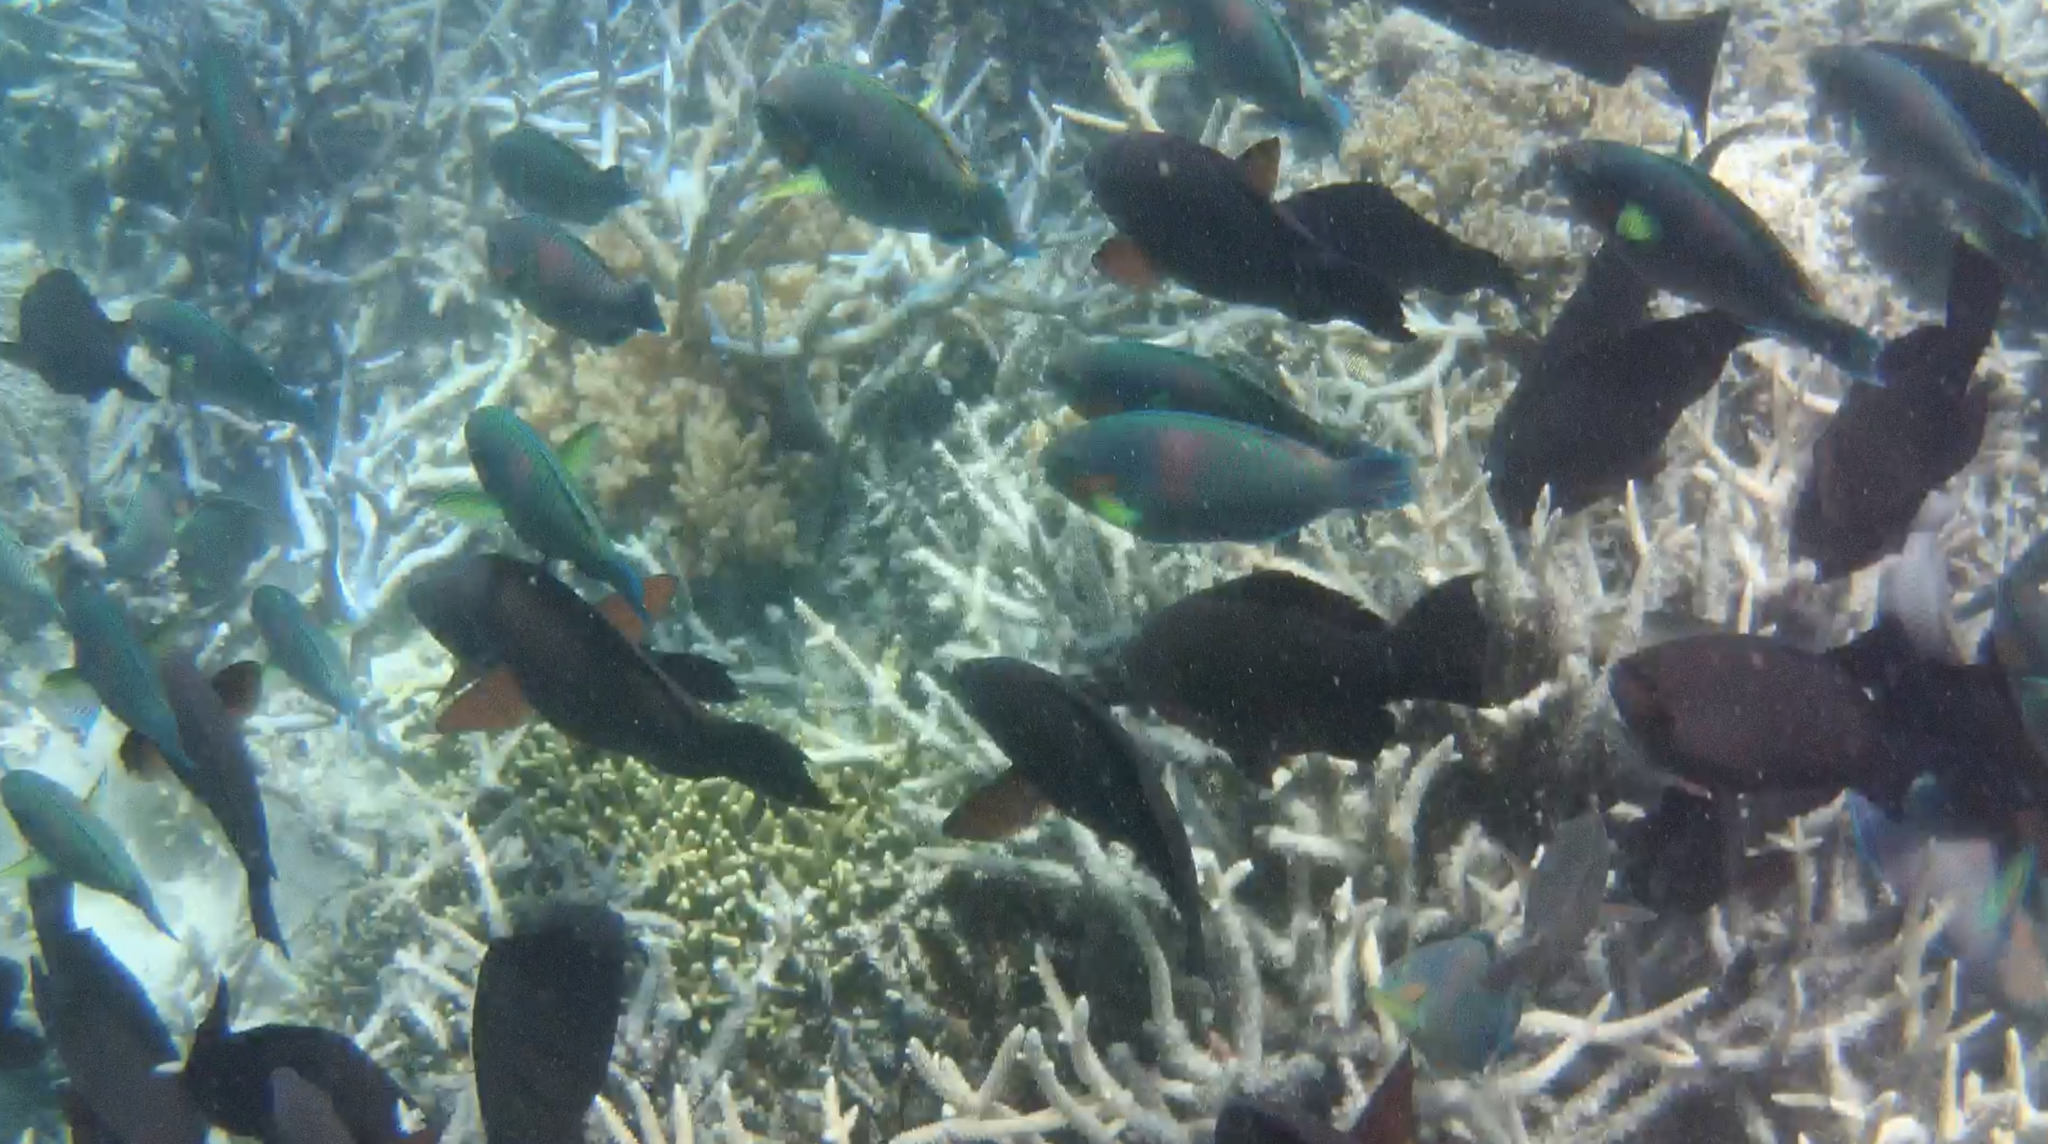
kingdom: Animalia
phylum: Chordata
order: Perciformes
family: Scaridae
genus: Scarus
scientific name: Scarus altipinnis
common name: Minifin parrotfish
